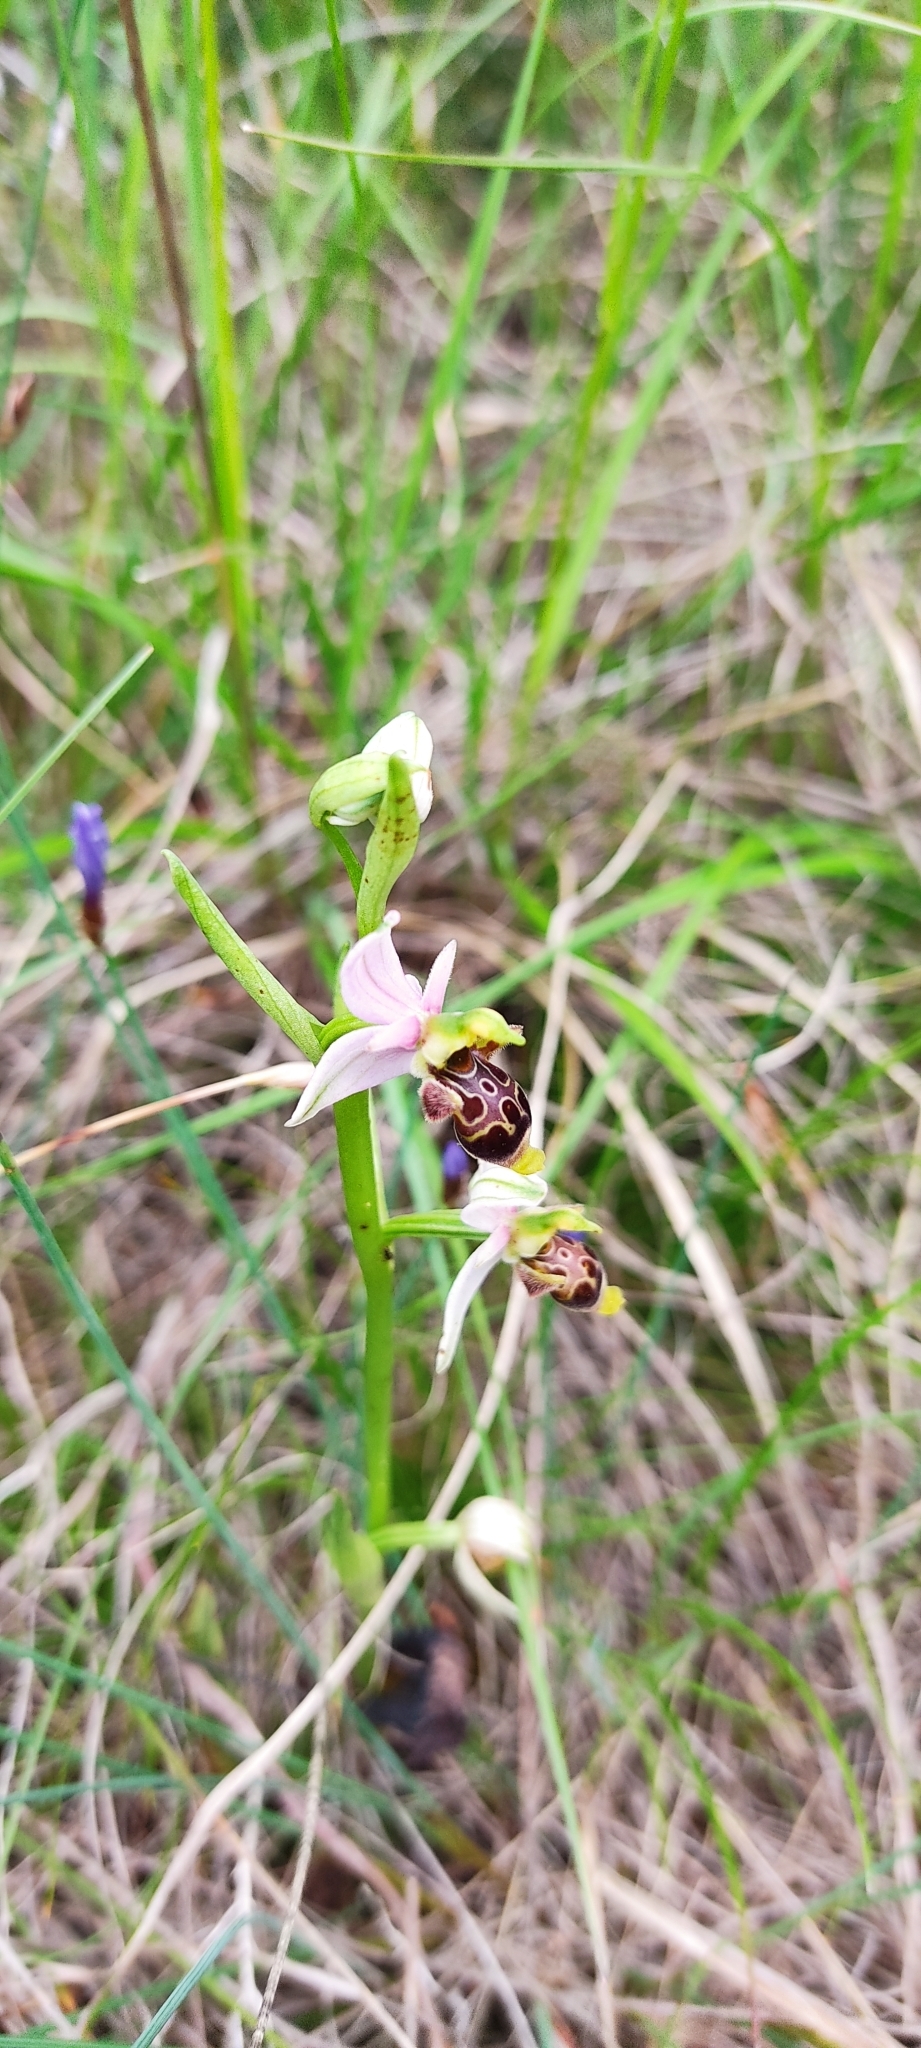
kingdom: Plantae
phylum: Tracheophyta
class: Liliopsida
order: Asparagales
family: Orchidaceae
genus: Ophrys
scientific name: Ophrys scolopax
